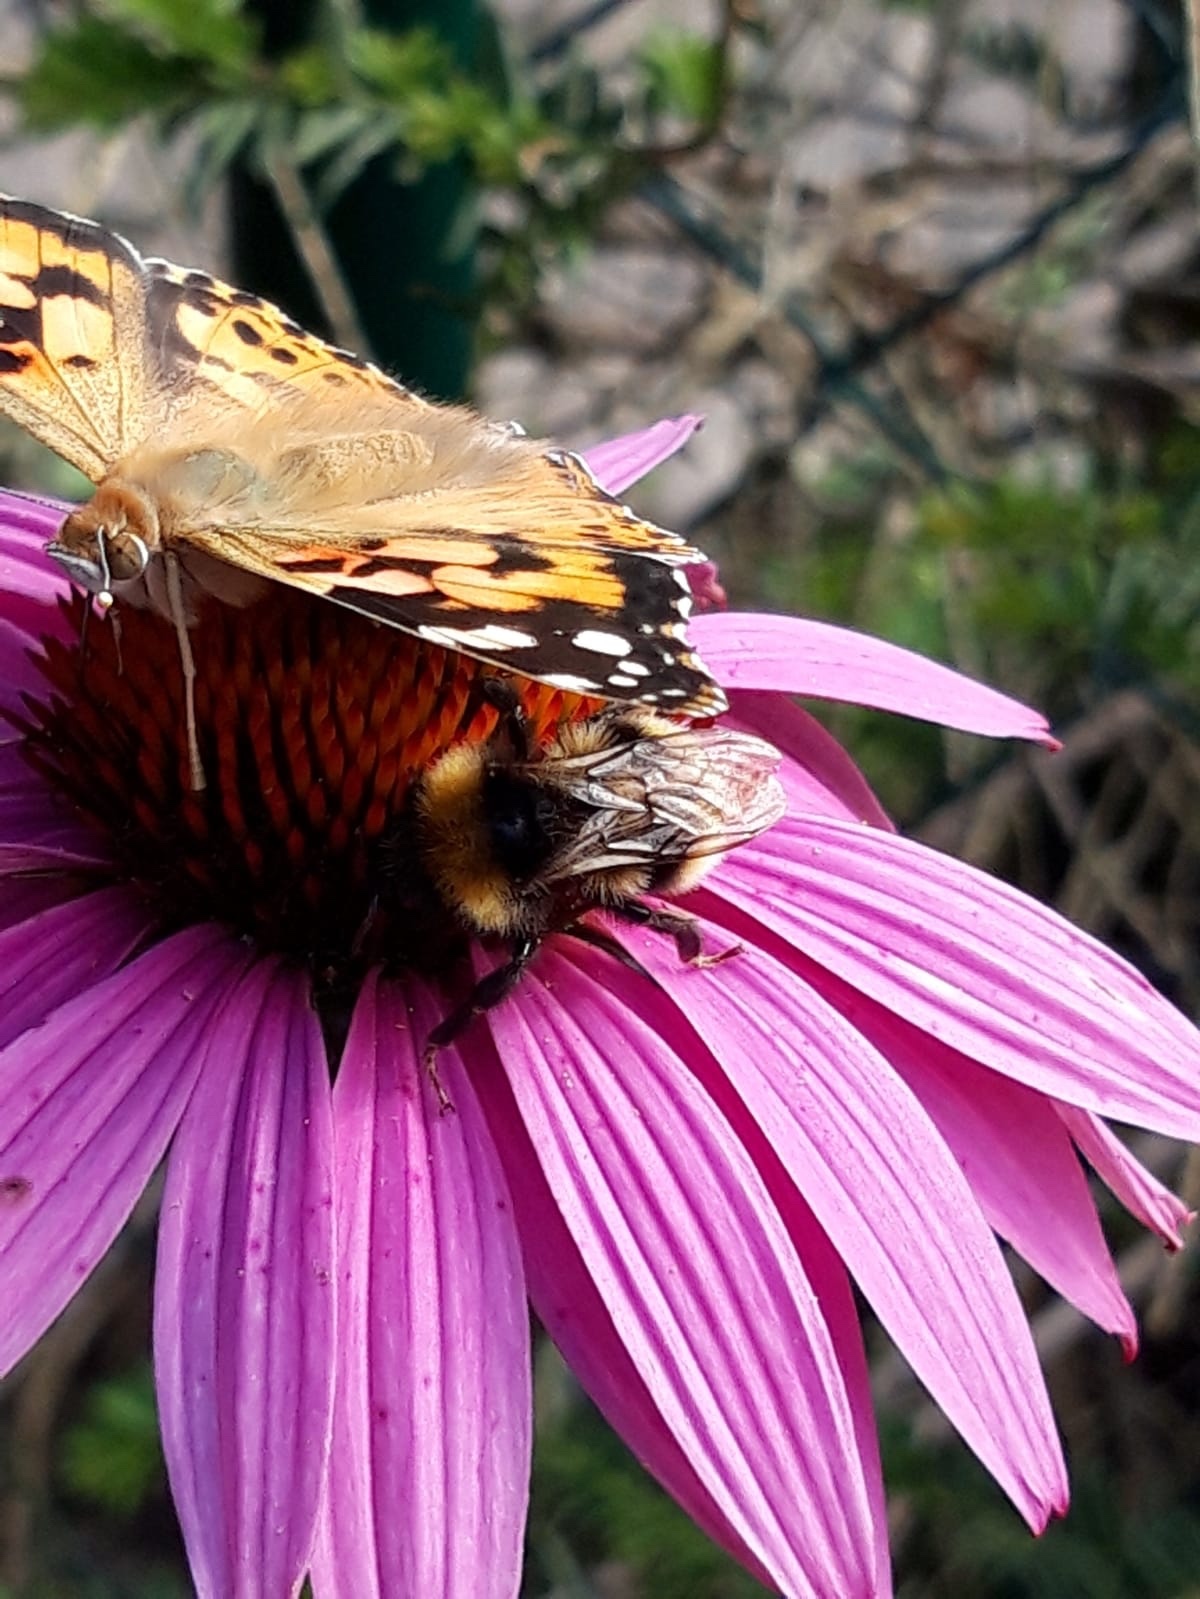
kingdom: Animalia
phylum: Arthropoda
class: Insecta
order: Lepidoptera
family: Nymphalidae
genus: Vanessa
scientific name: Vanessa cardui
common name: Painted lady
